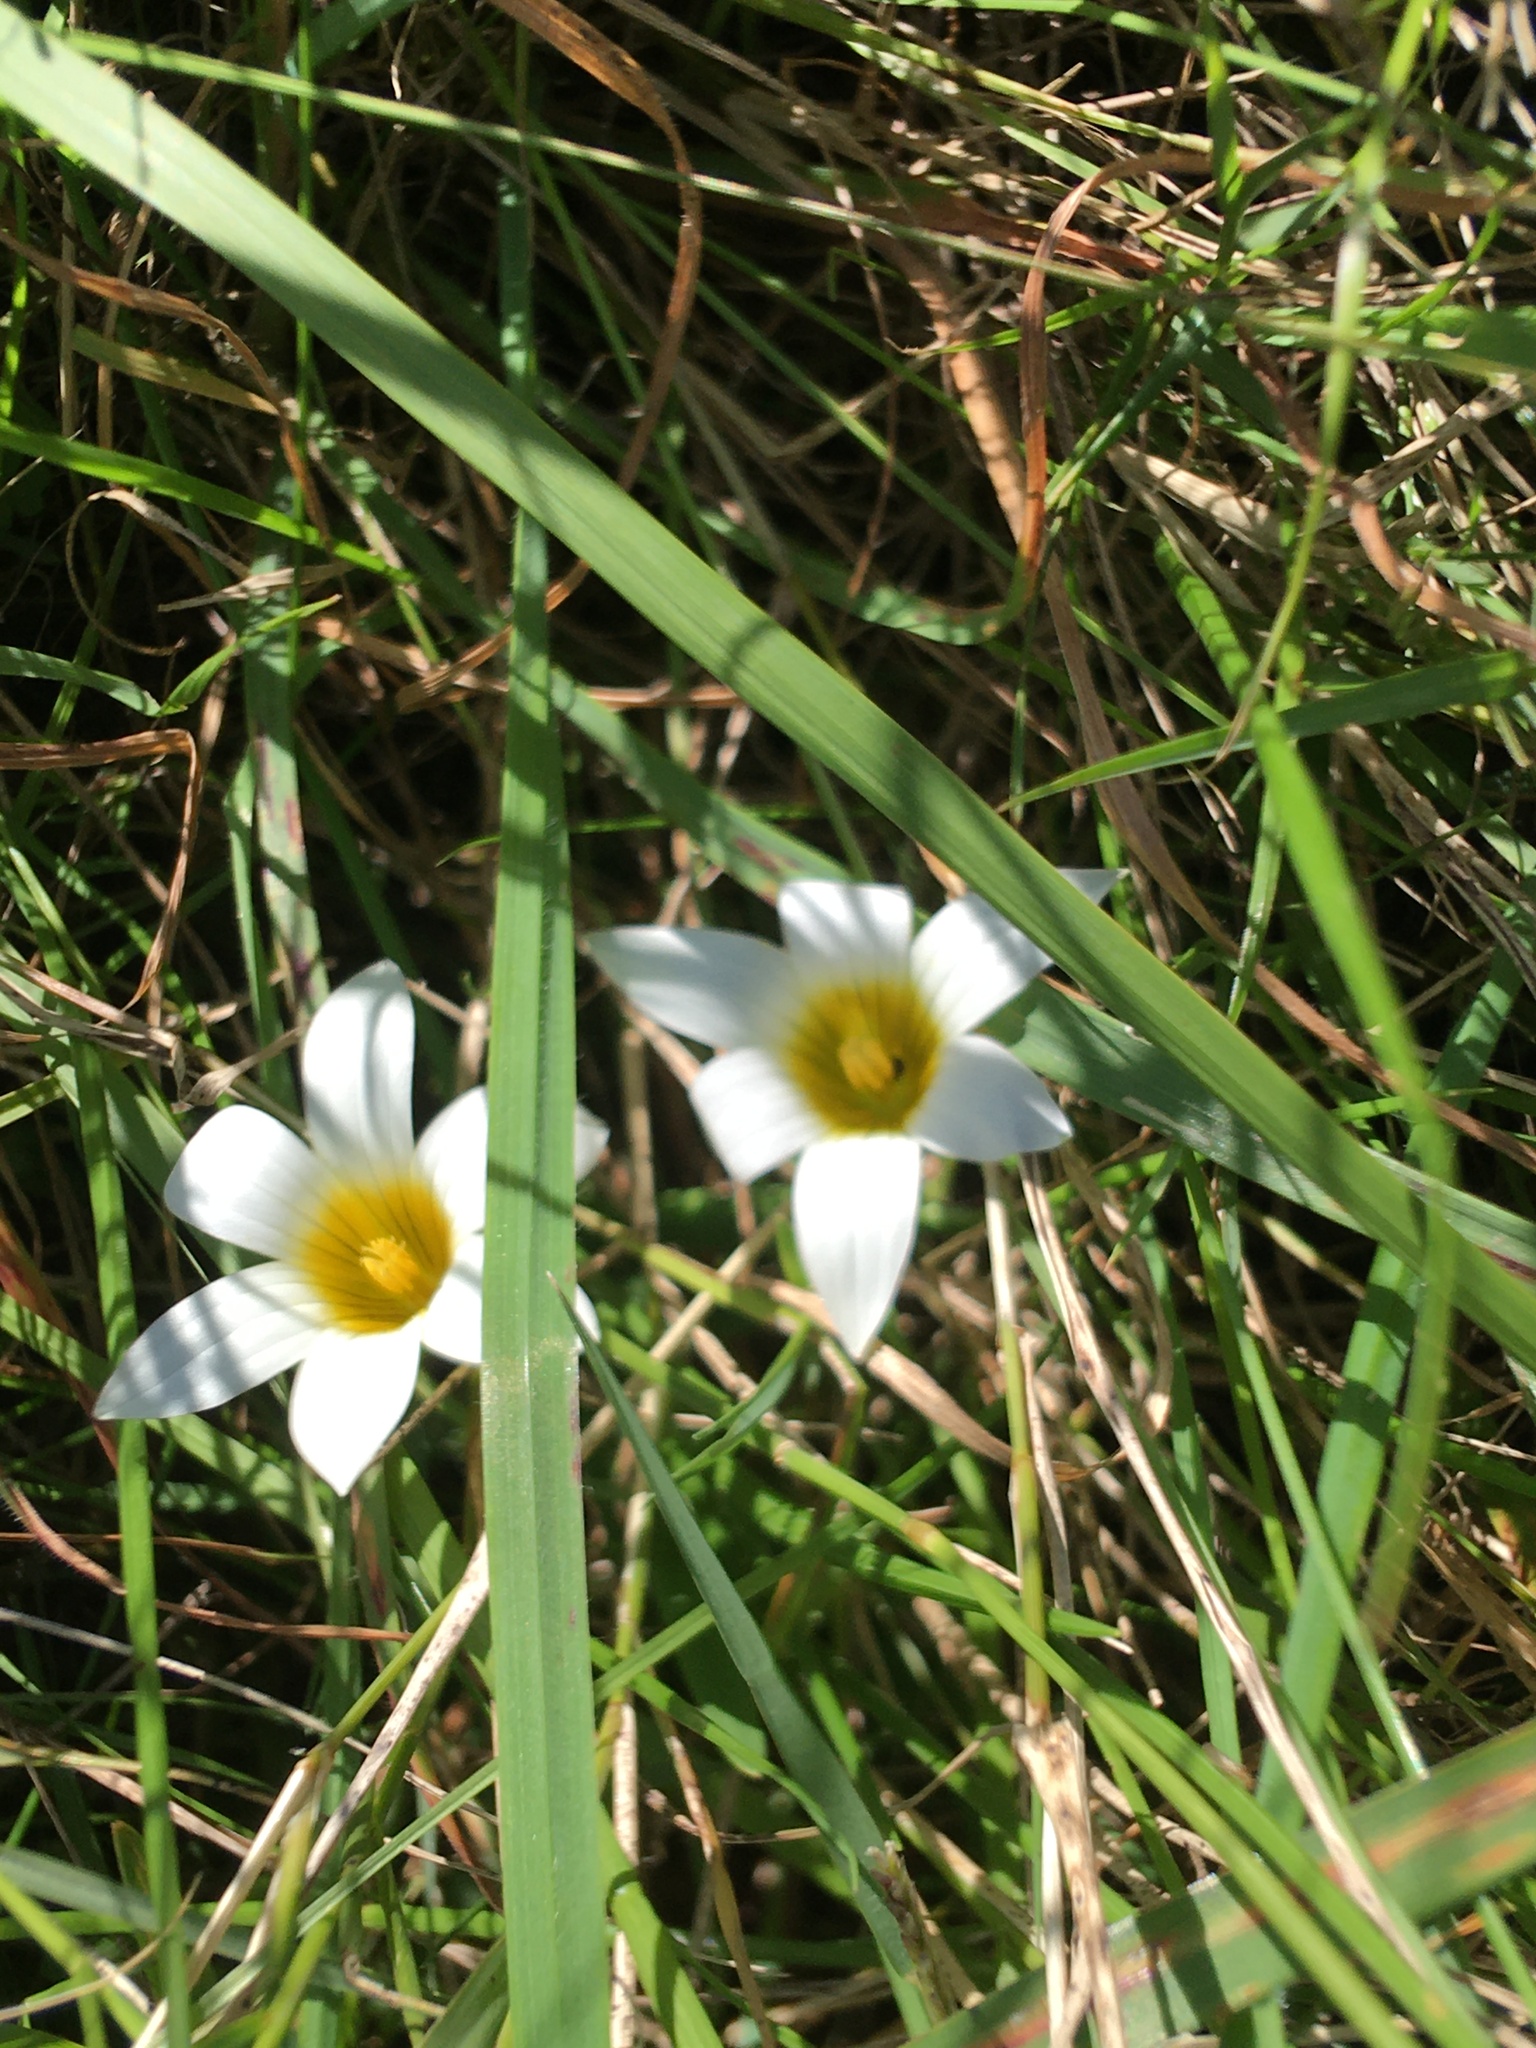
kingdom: Plantae
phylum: Tracheophyta
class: Liliopsida
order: Asparagales
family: Iridaceae
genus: Romulea
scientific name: Romulea flava
